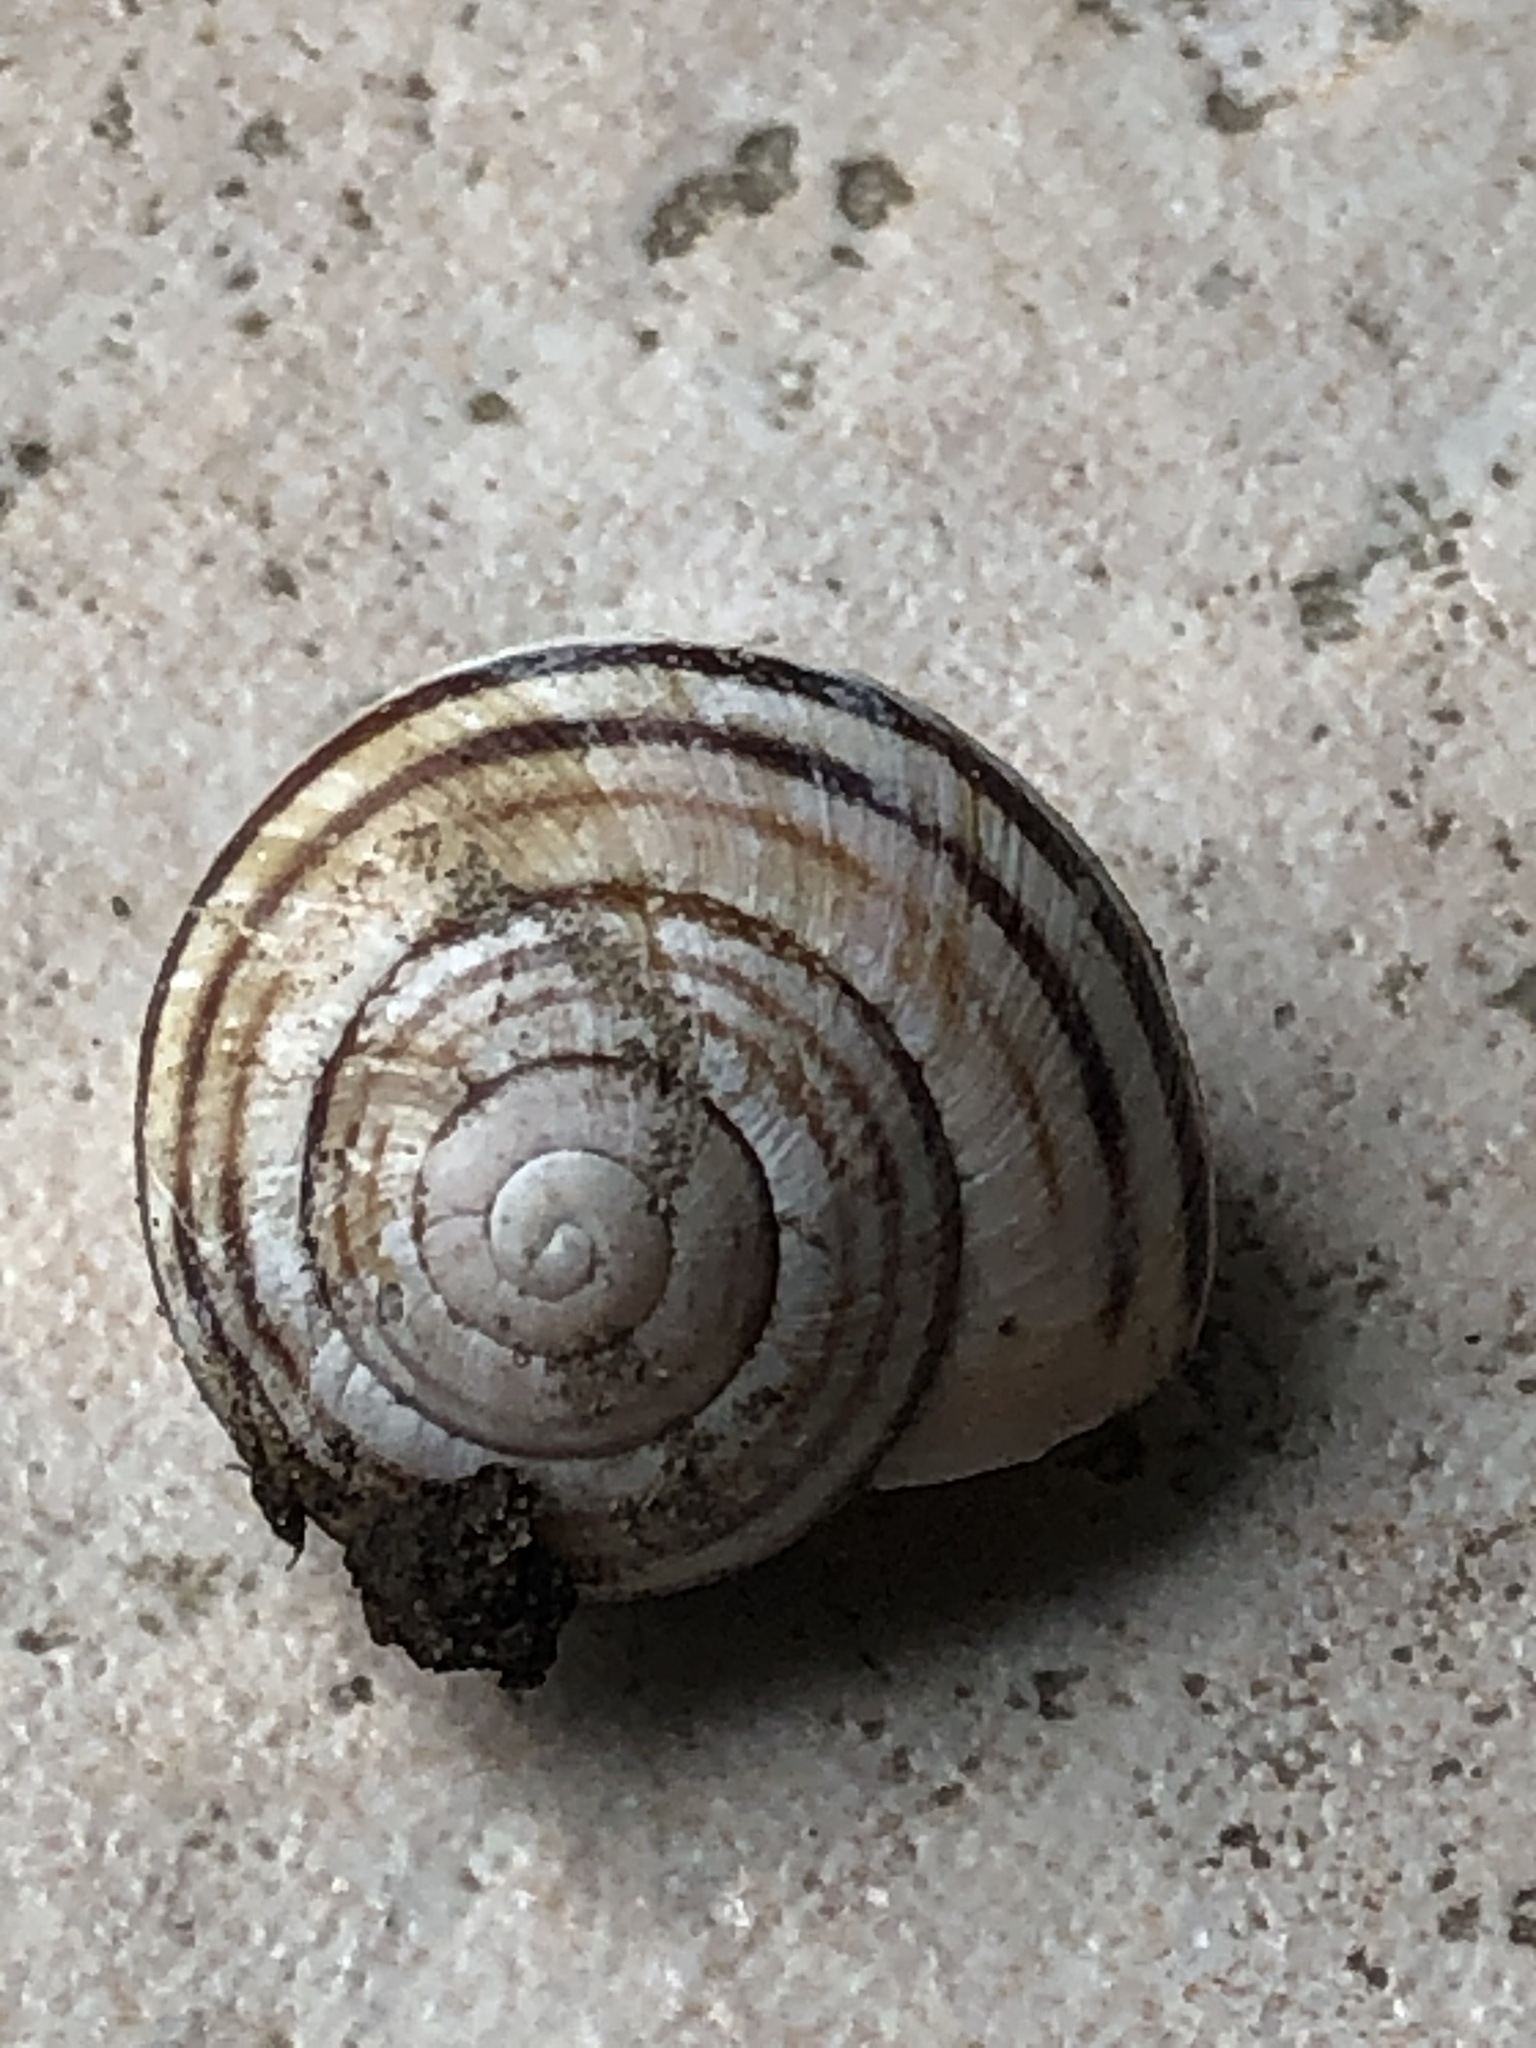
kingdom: Animalia
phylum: Mollusca
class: Gastropoda
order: Stylommatophora
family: Helicidae
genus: Cepaea
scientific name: Cepaea nemoralis
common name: Grovesnail
